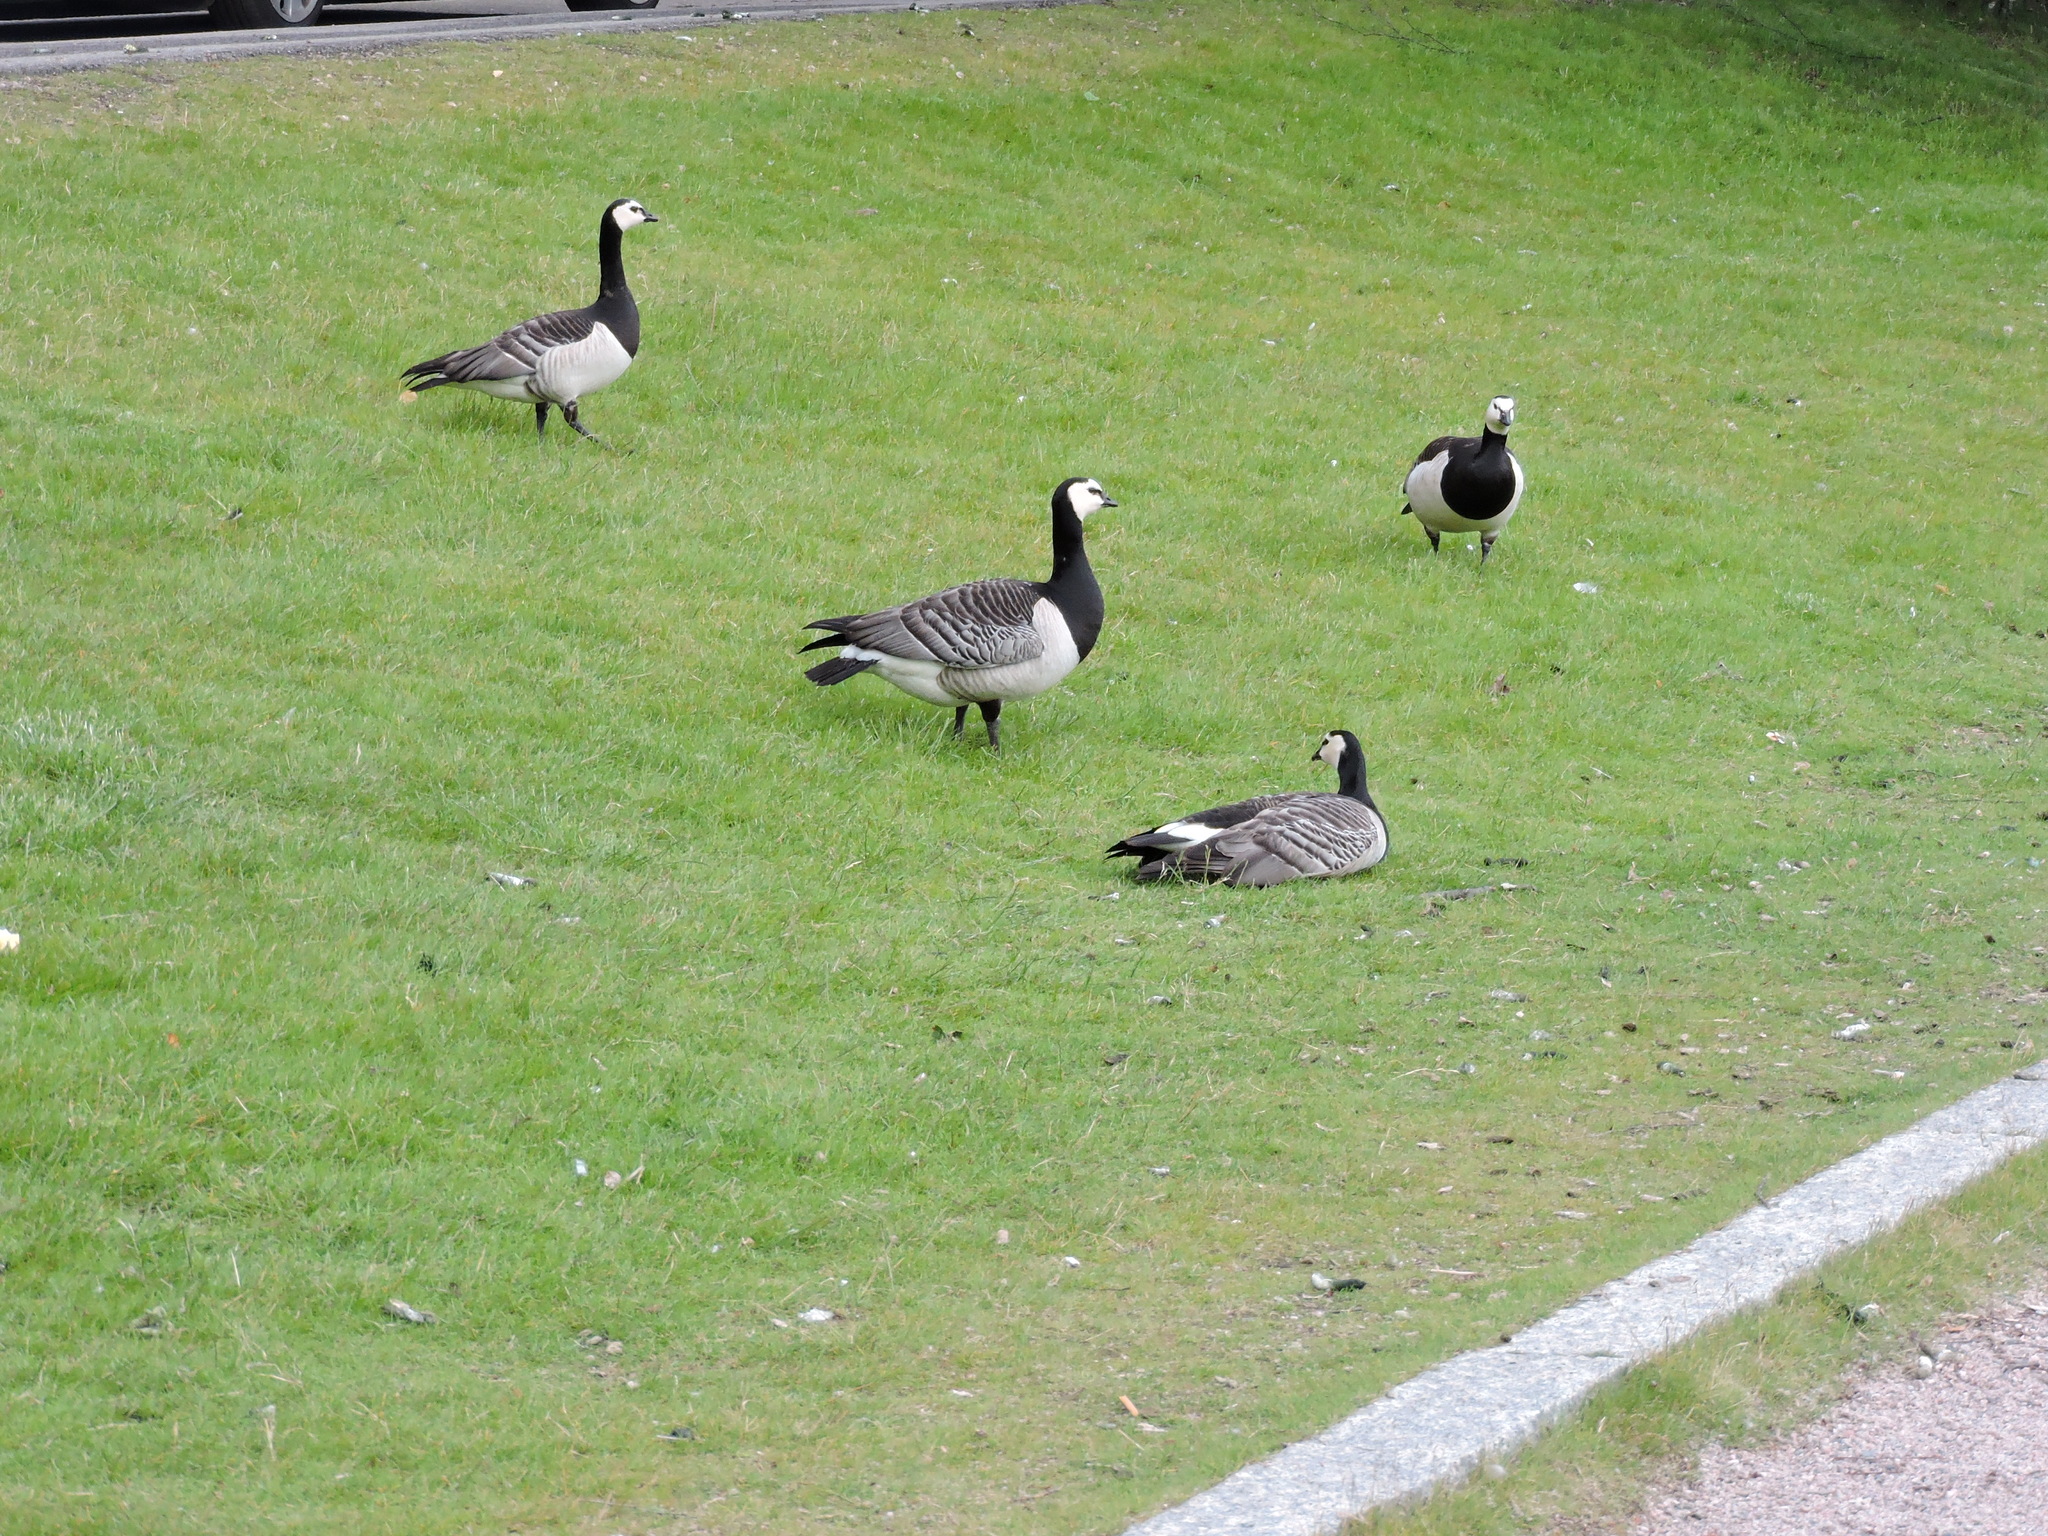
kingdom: Animalia
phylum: Chordata
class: Aves
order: Anseriformes
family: Anatidae
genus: Branta
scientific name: Branta leucopsis
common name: Barnacle goose
